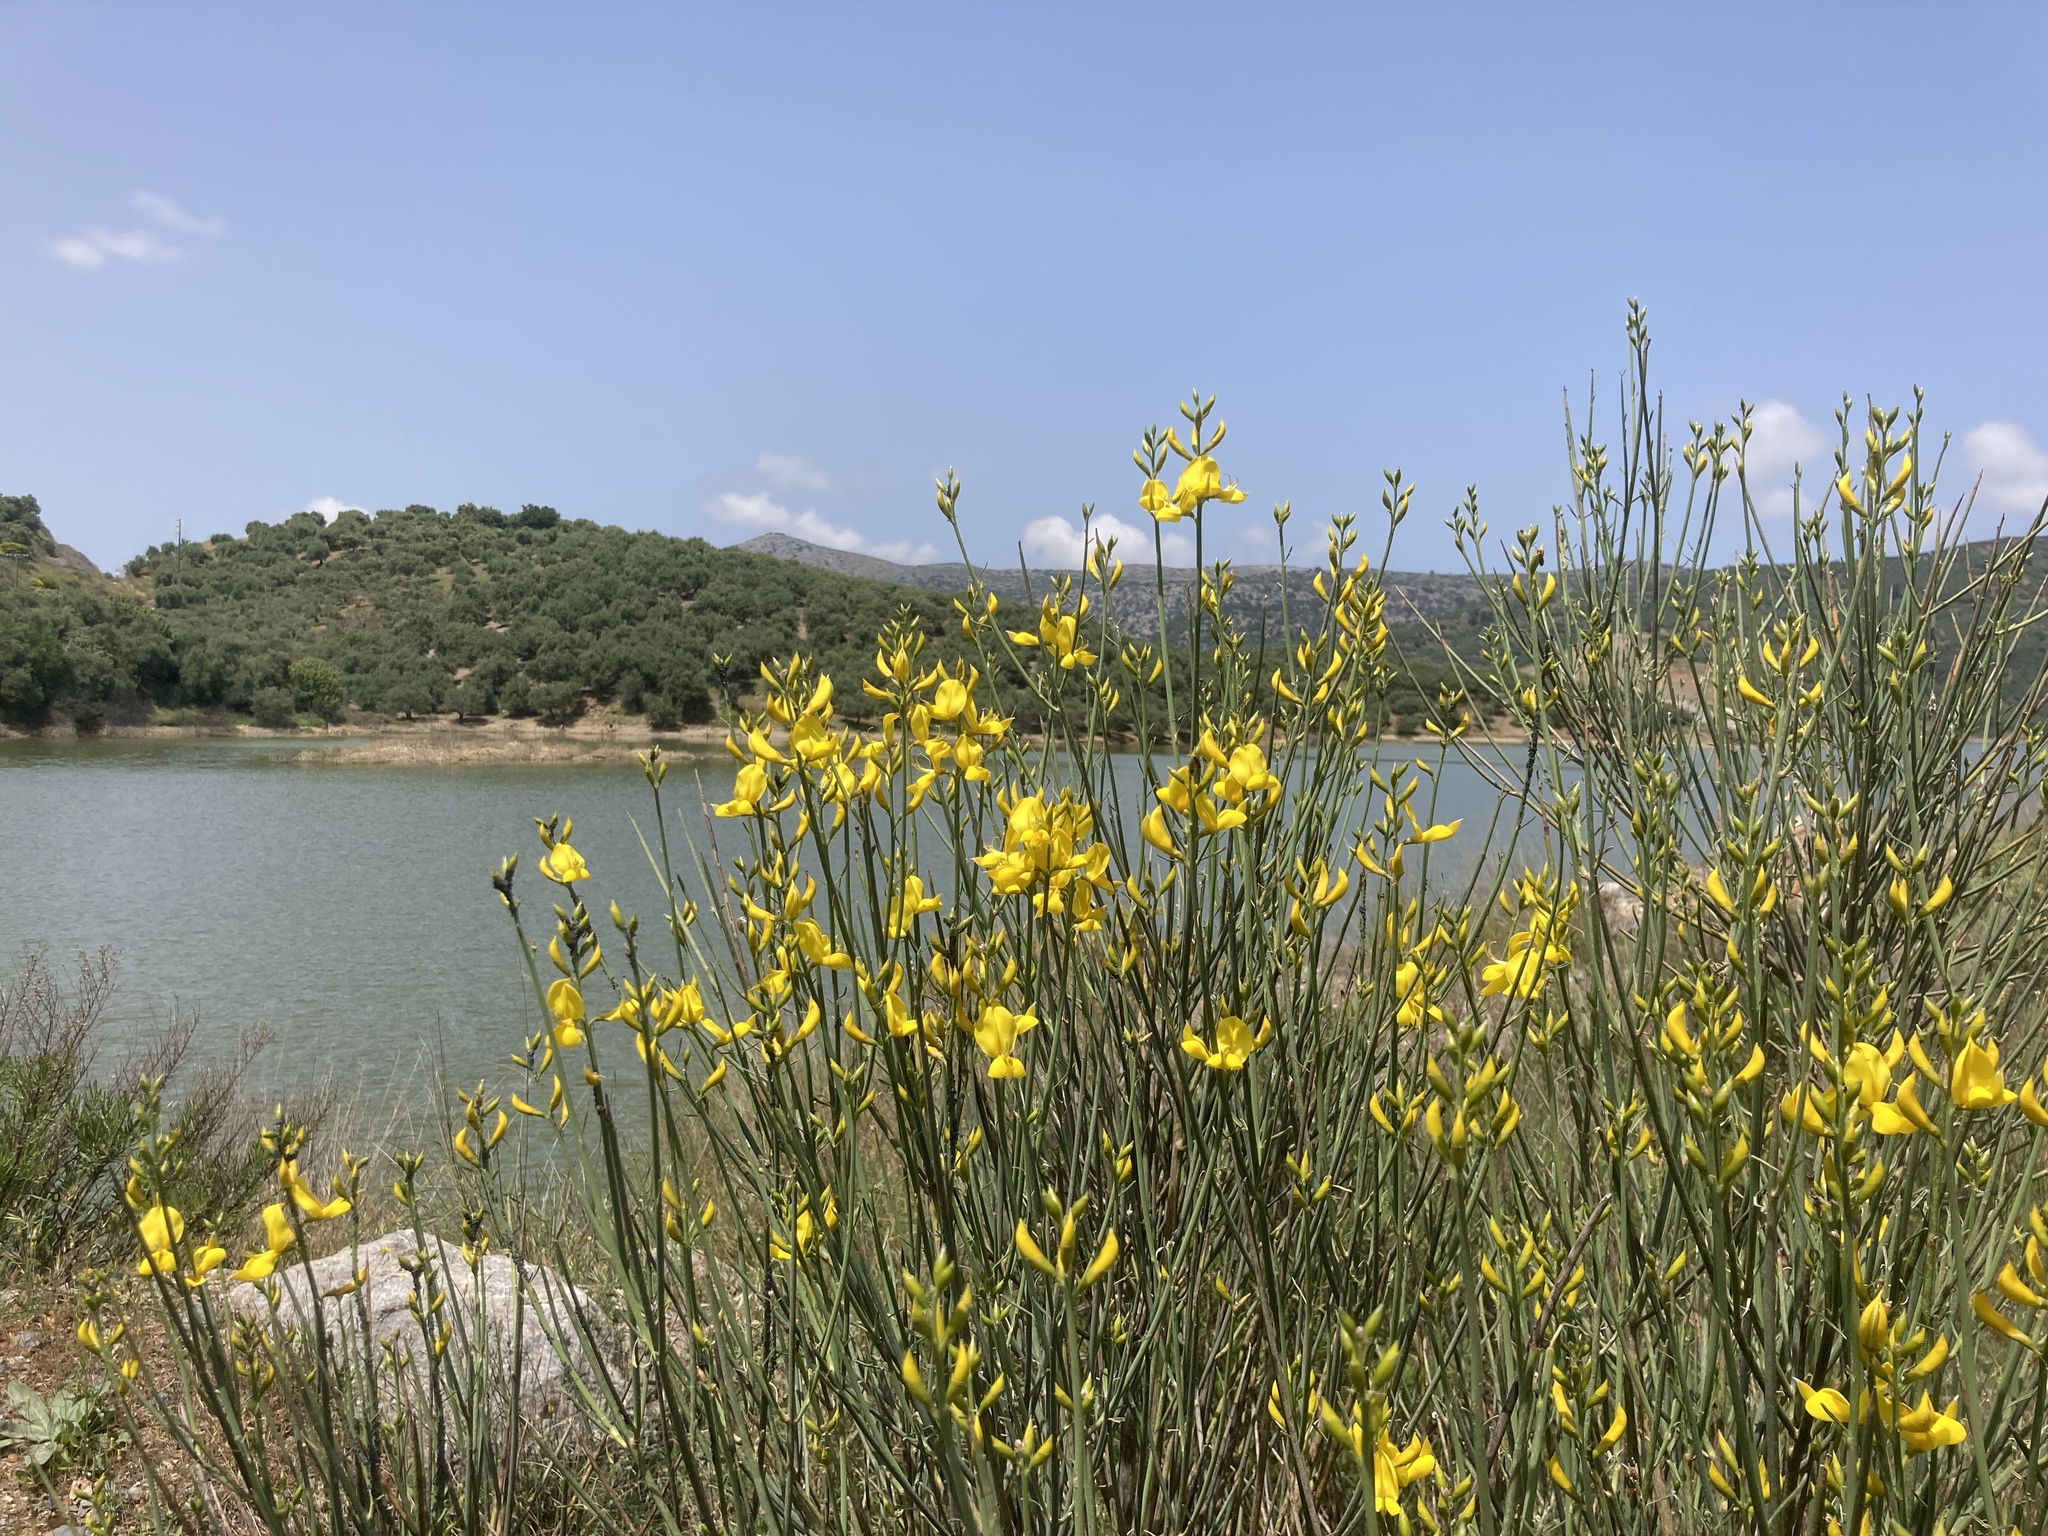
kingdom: Plantae
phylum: Tracheophyta
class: Magnoliopsida
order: Fabales
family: Fabaceae
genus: Spartium
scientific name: Spartium junceum
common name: Spanish broom
